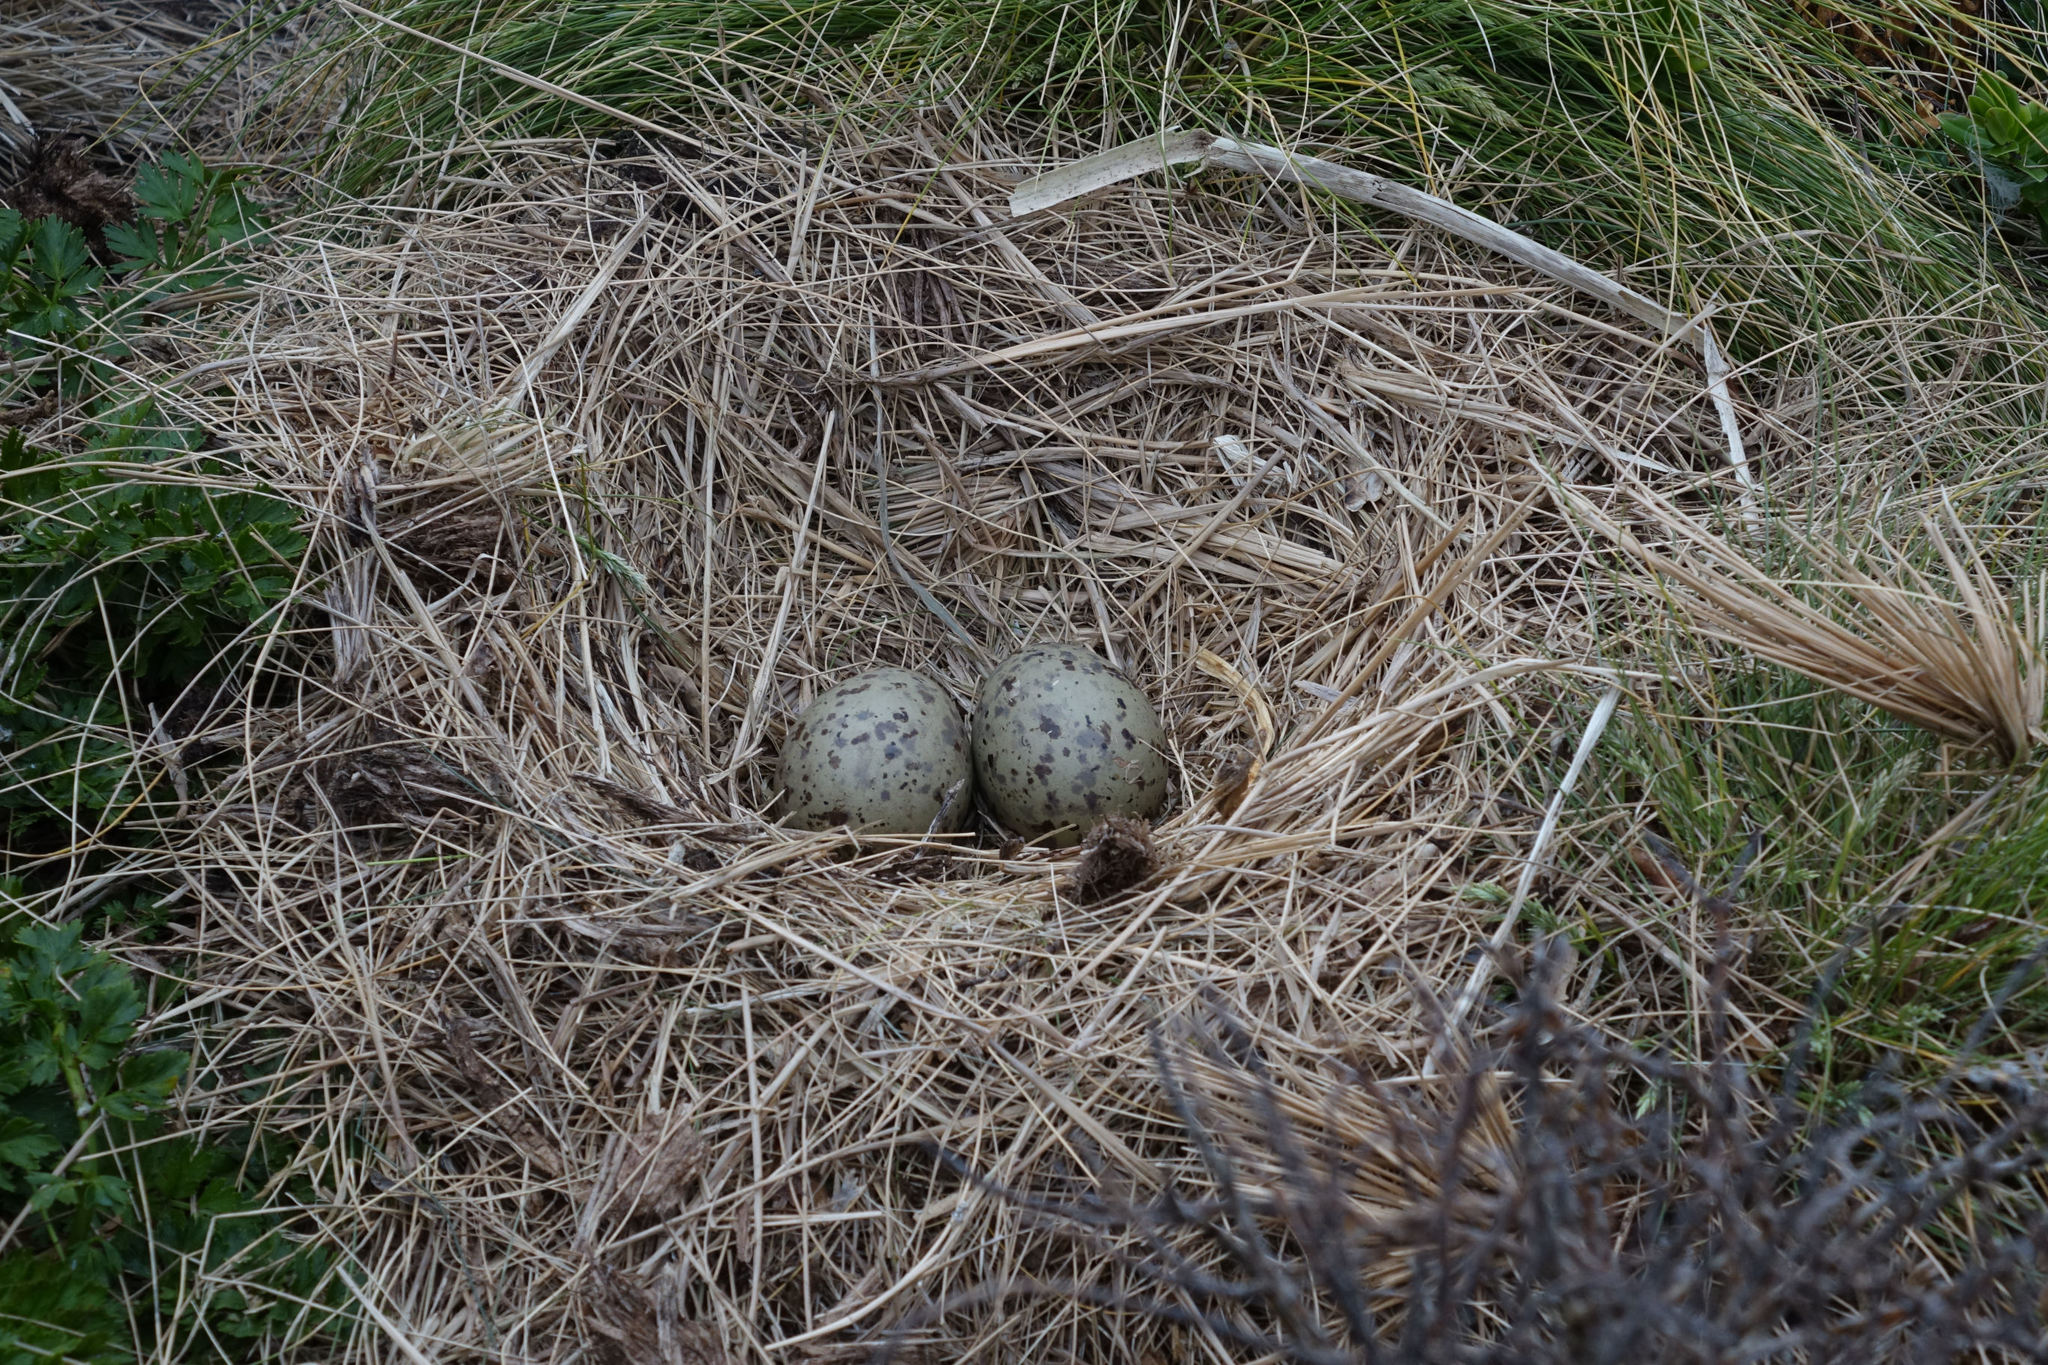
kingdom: Animalia
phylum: Chordata
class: Aves
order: Charadriiformes
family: Laridae
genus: Larus
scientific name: Larus dominicanus
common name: Kelp gull
